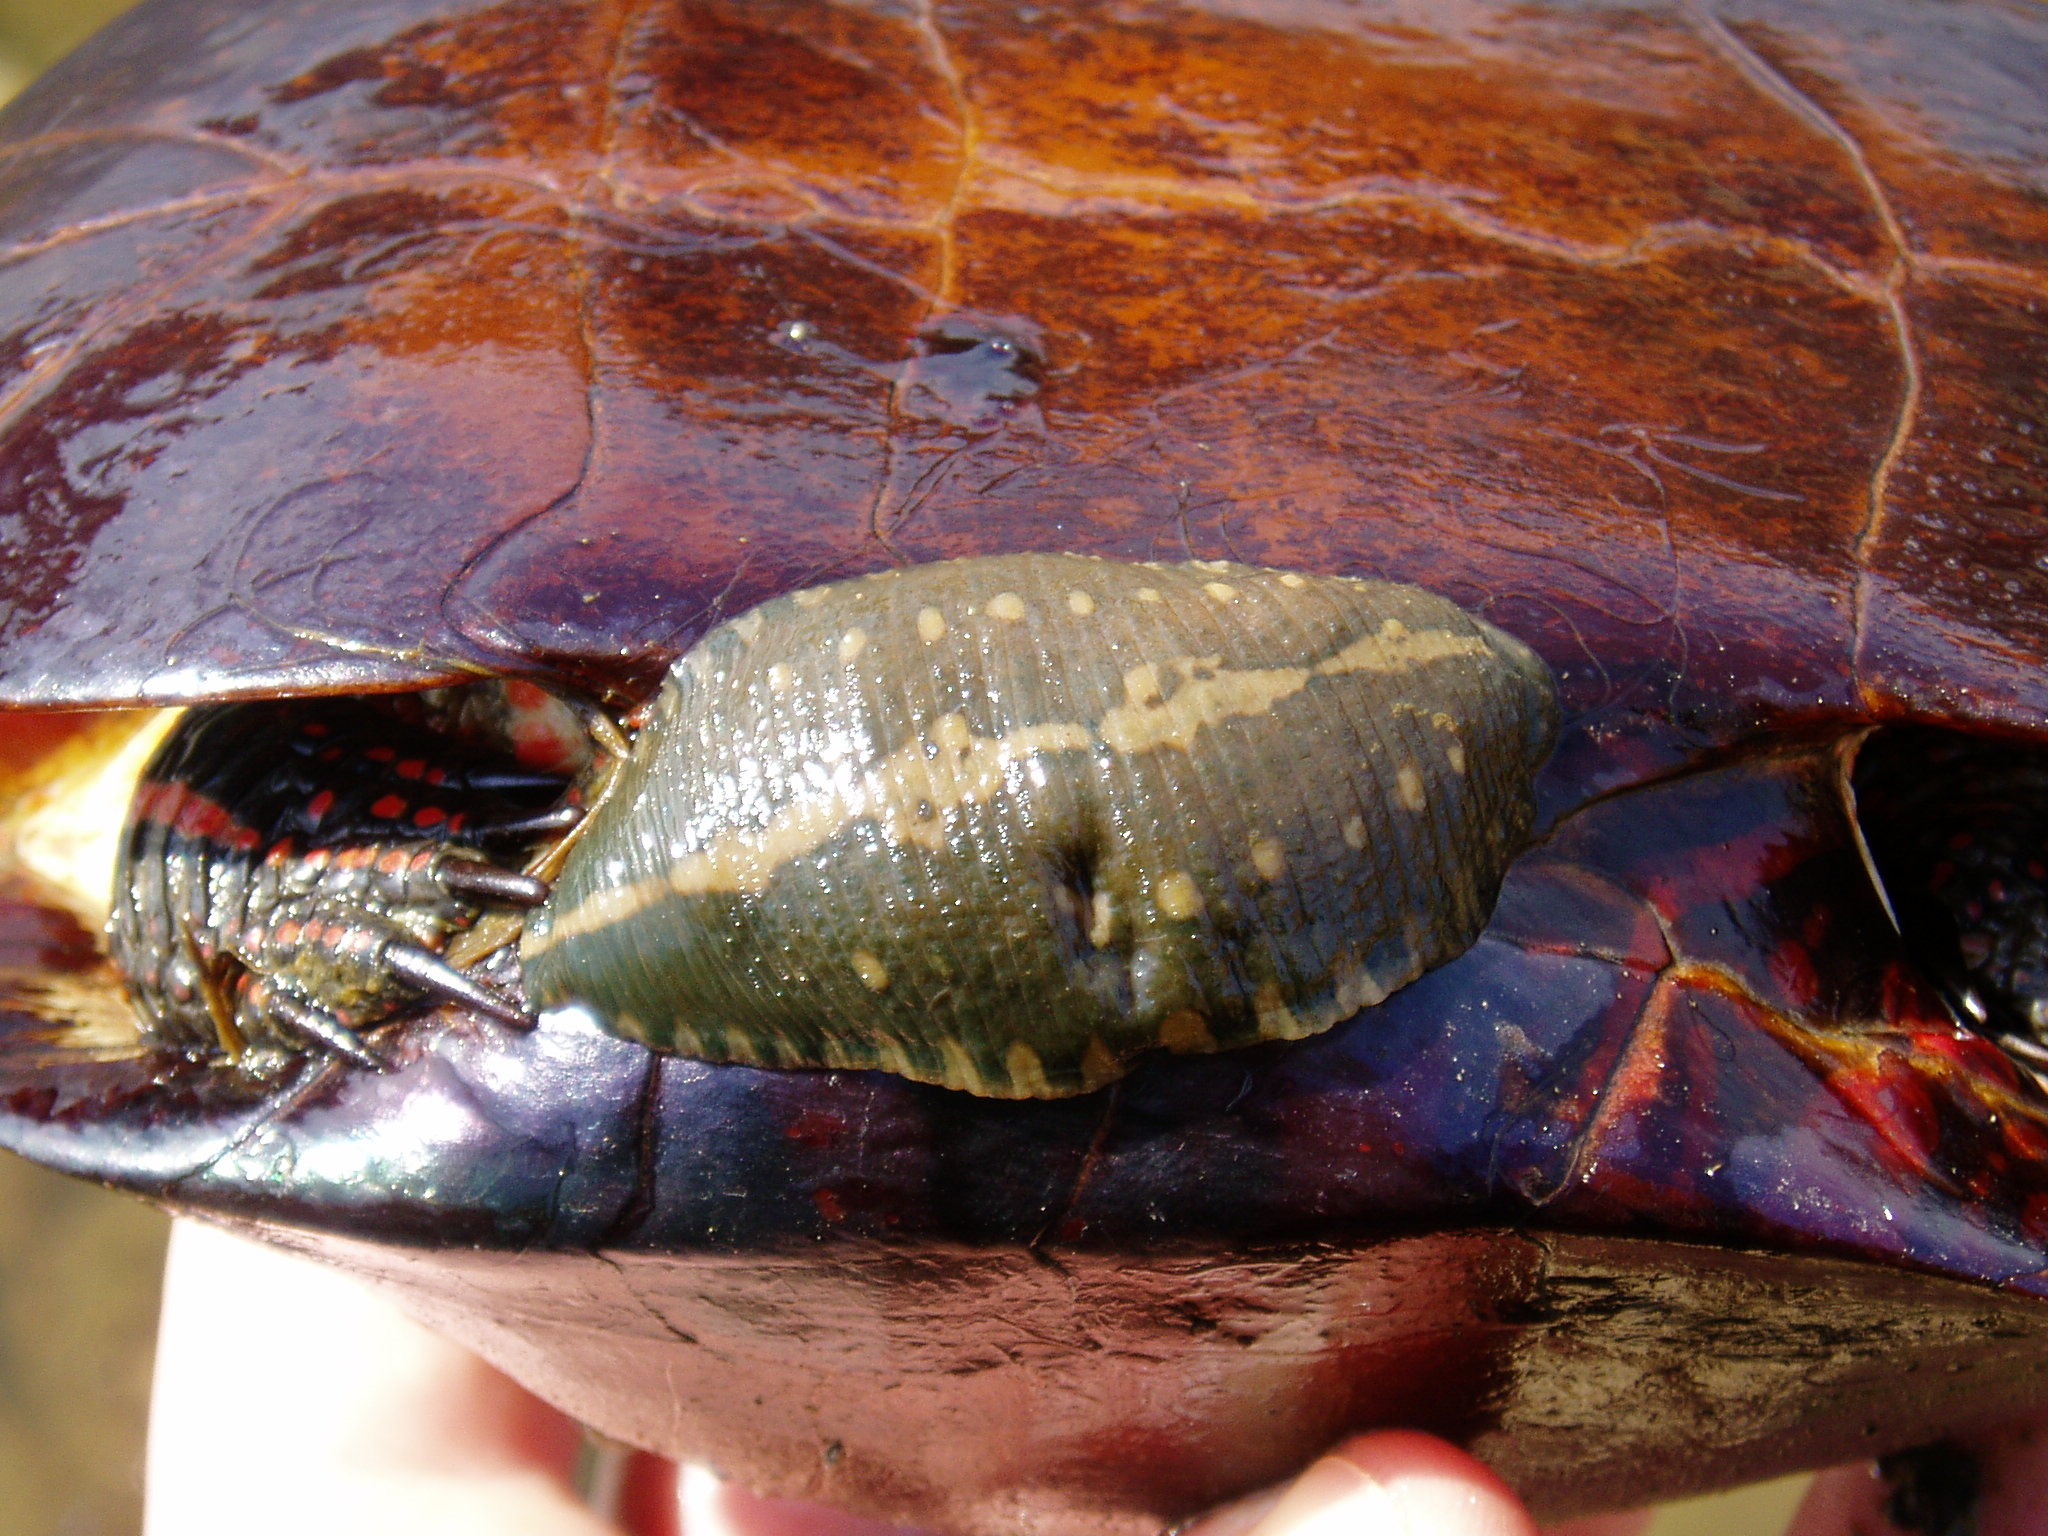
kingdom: Animalia
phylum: Annelida
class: Clitellata
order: Rhynchobdellida
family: Glossiphoniidae
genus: Placobdella
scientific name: Placobdella parasitica
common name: Smooth turtle leech
